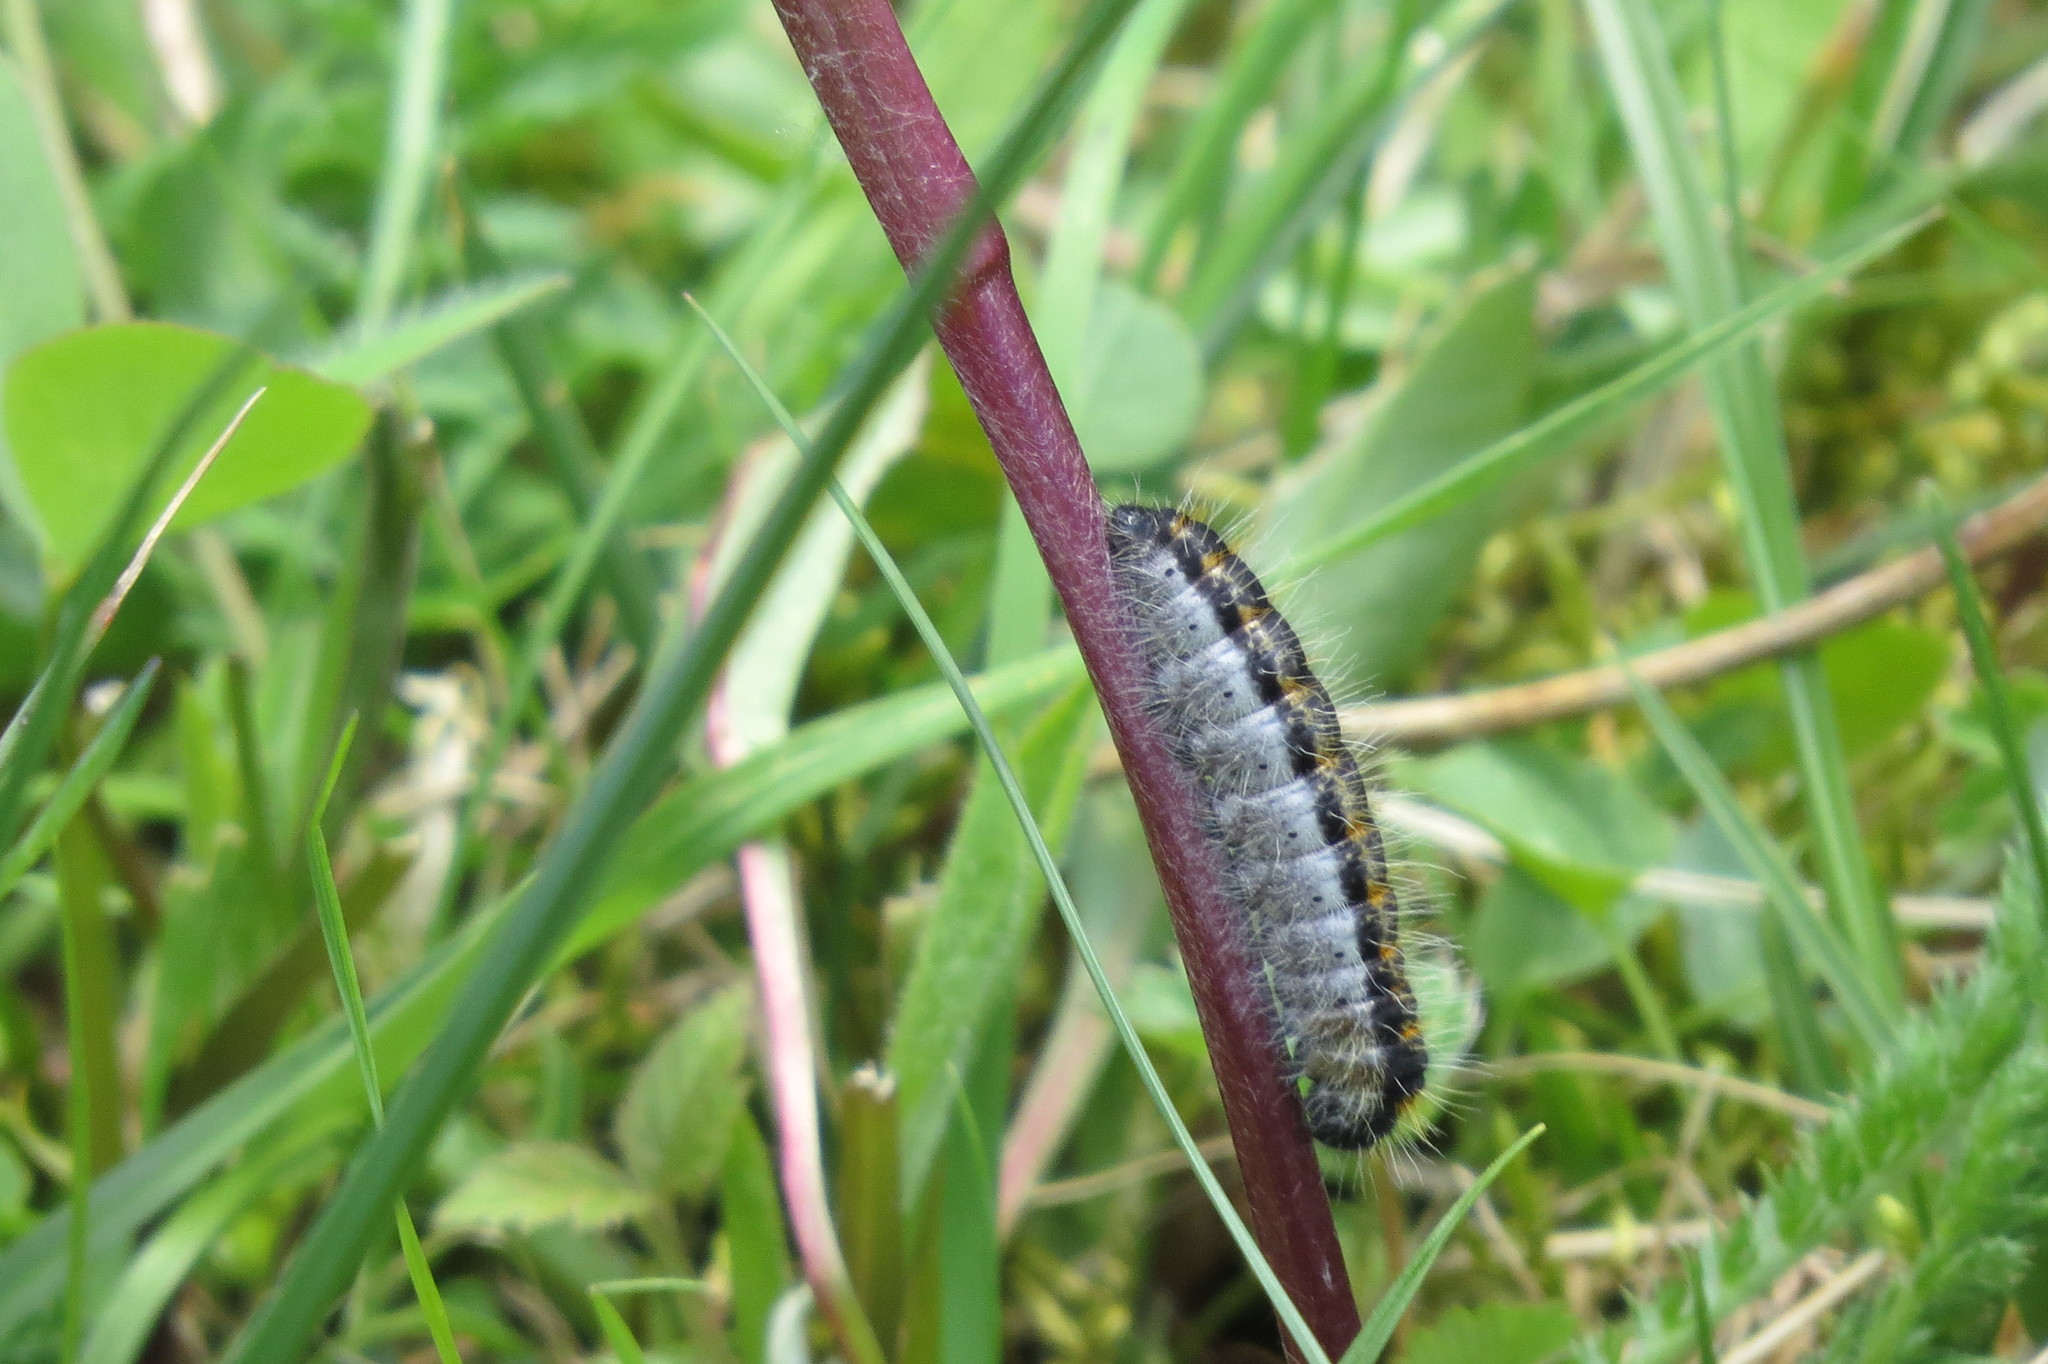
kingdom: Animalia
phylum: Arthropoda
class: Insecta
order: Lepidoptera
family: Pieridae
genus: Aporia
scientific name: Aporia crataegi
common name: Black-veined white
